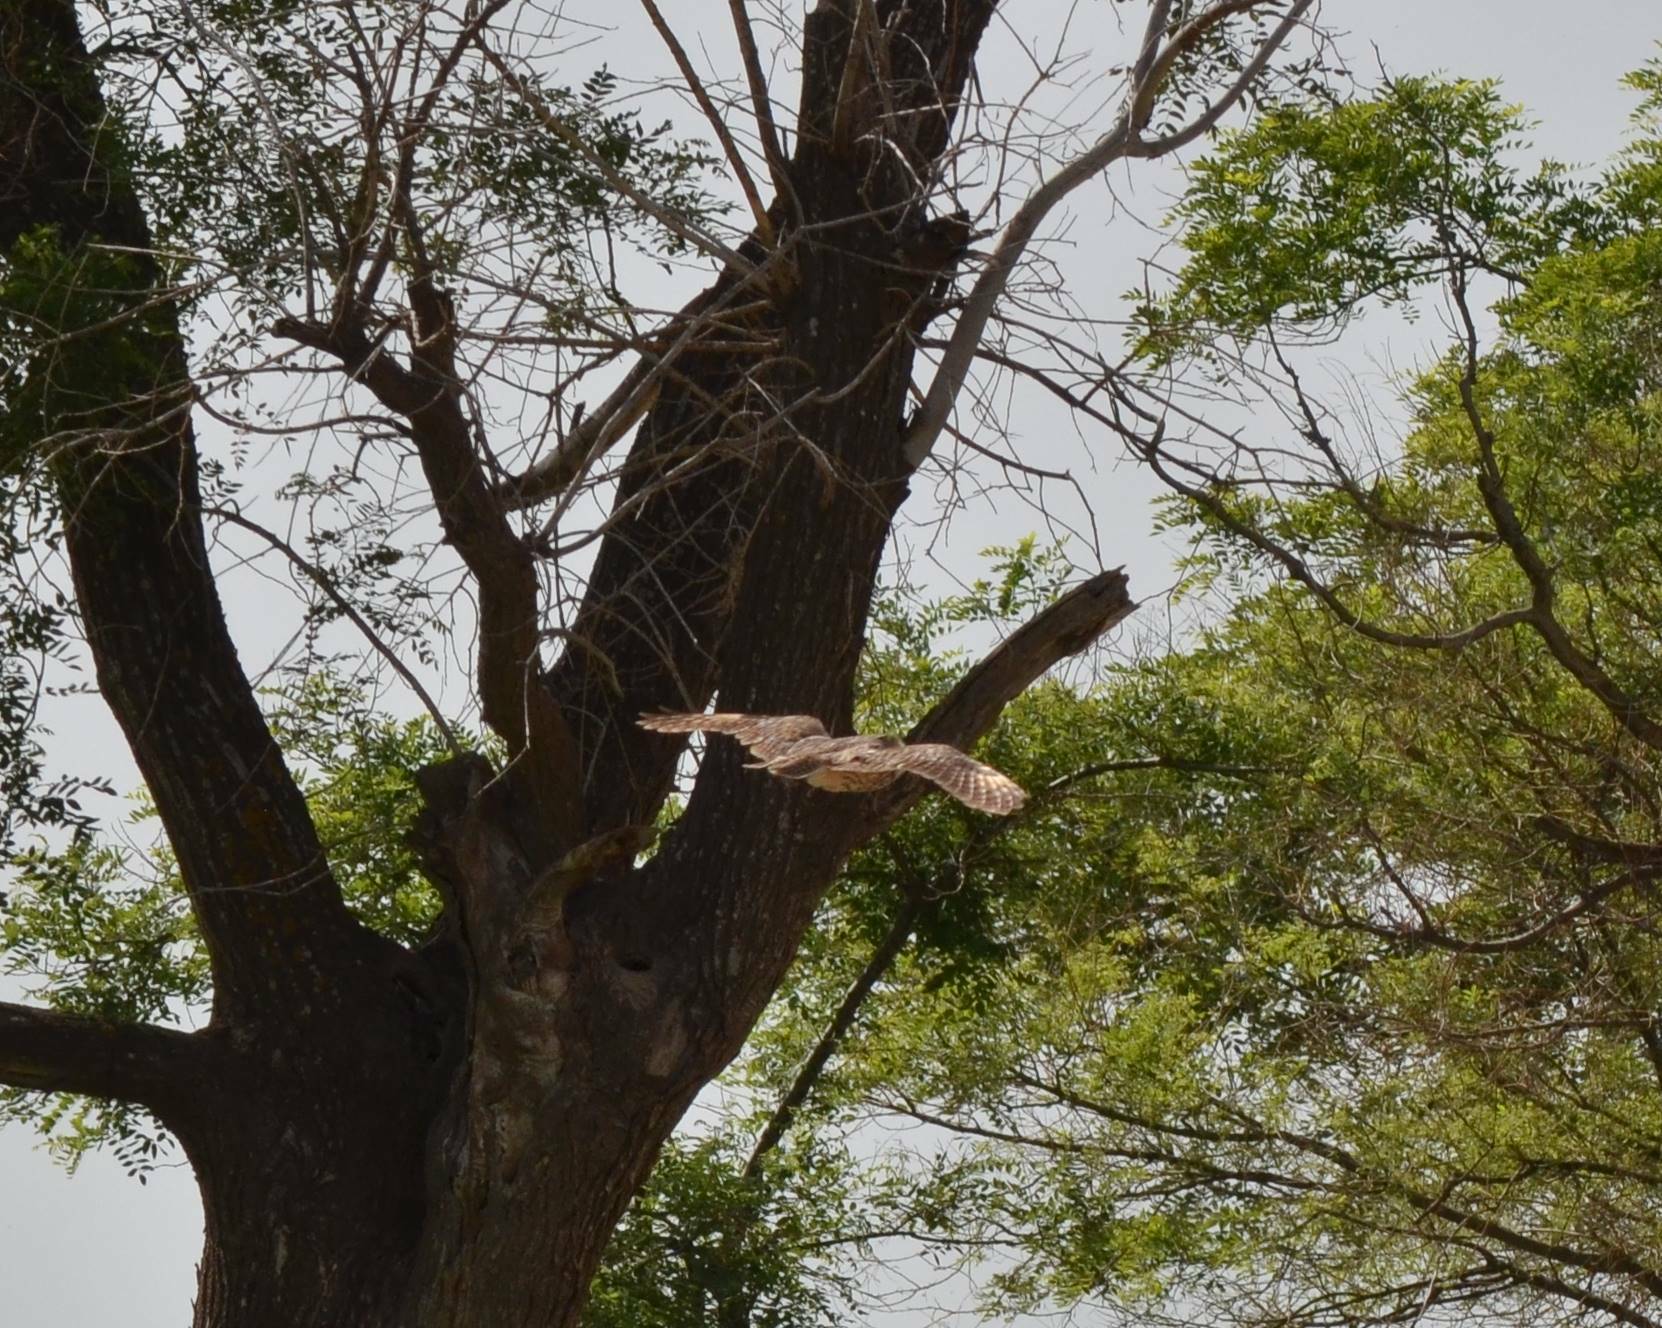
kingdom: Animalia
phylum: Chordata
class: Aves
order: Strigiformes
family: Strigidae
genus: Asio
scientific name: Asio otus
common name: Long-eared owl
